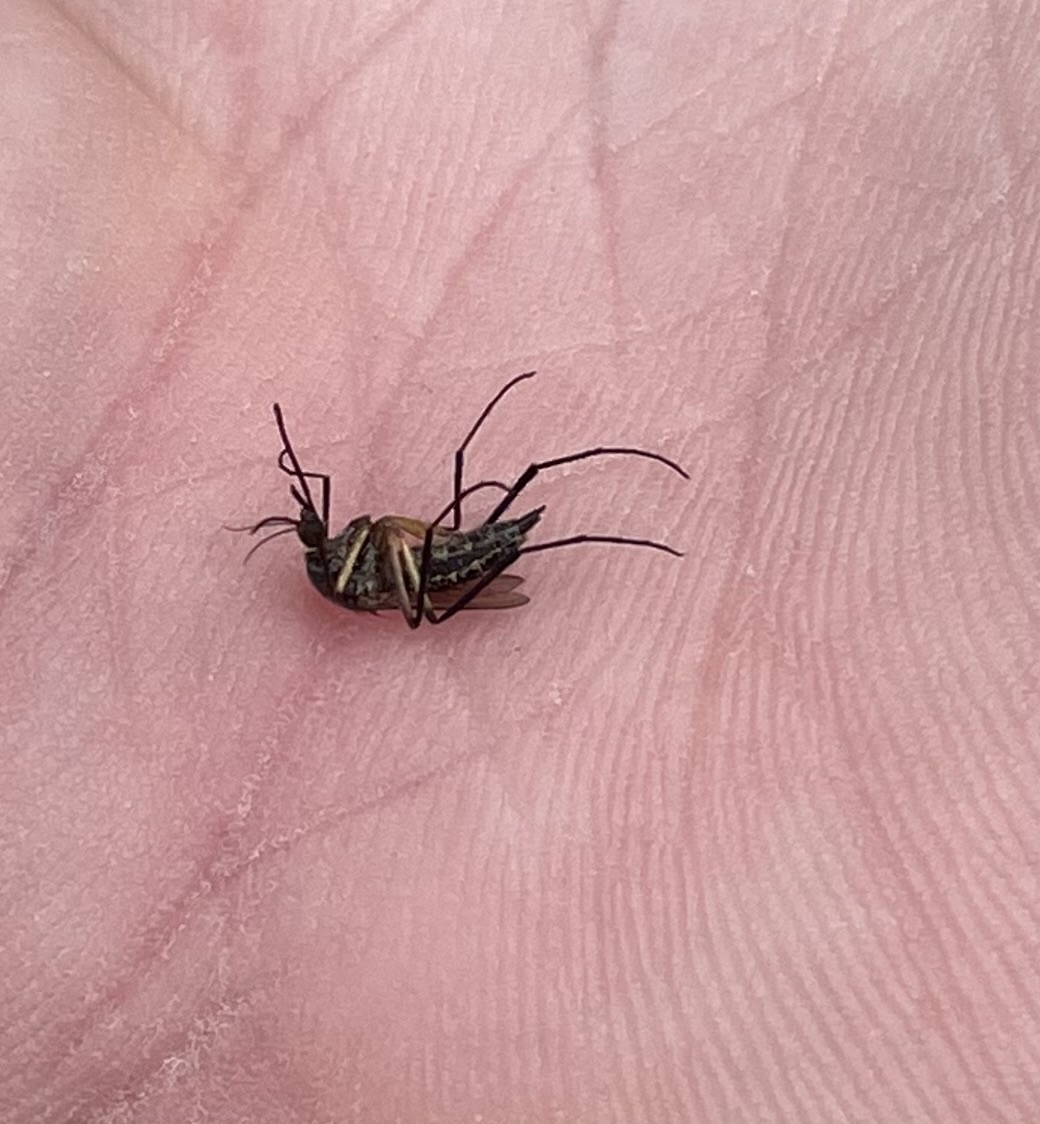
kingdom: Animalia
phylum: Arthropoda
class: Insecta
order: Diptera
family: Culicidae
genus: Psorophora
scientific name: Psorophora cyanescens
